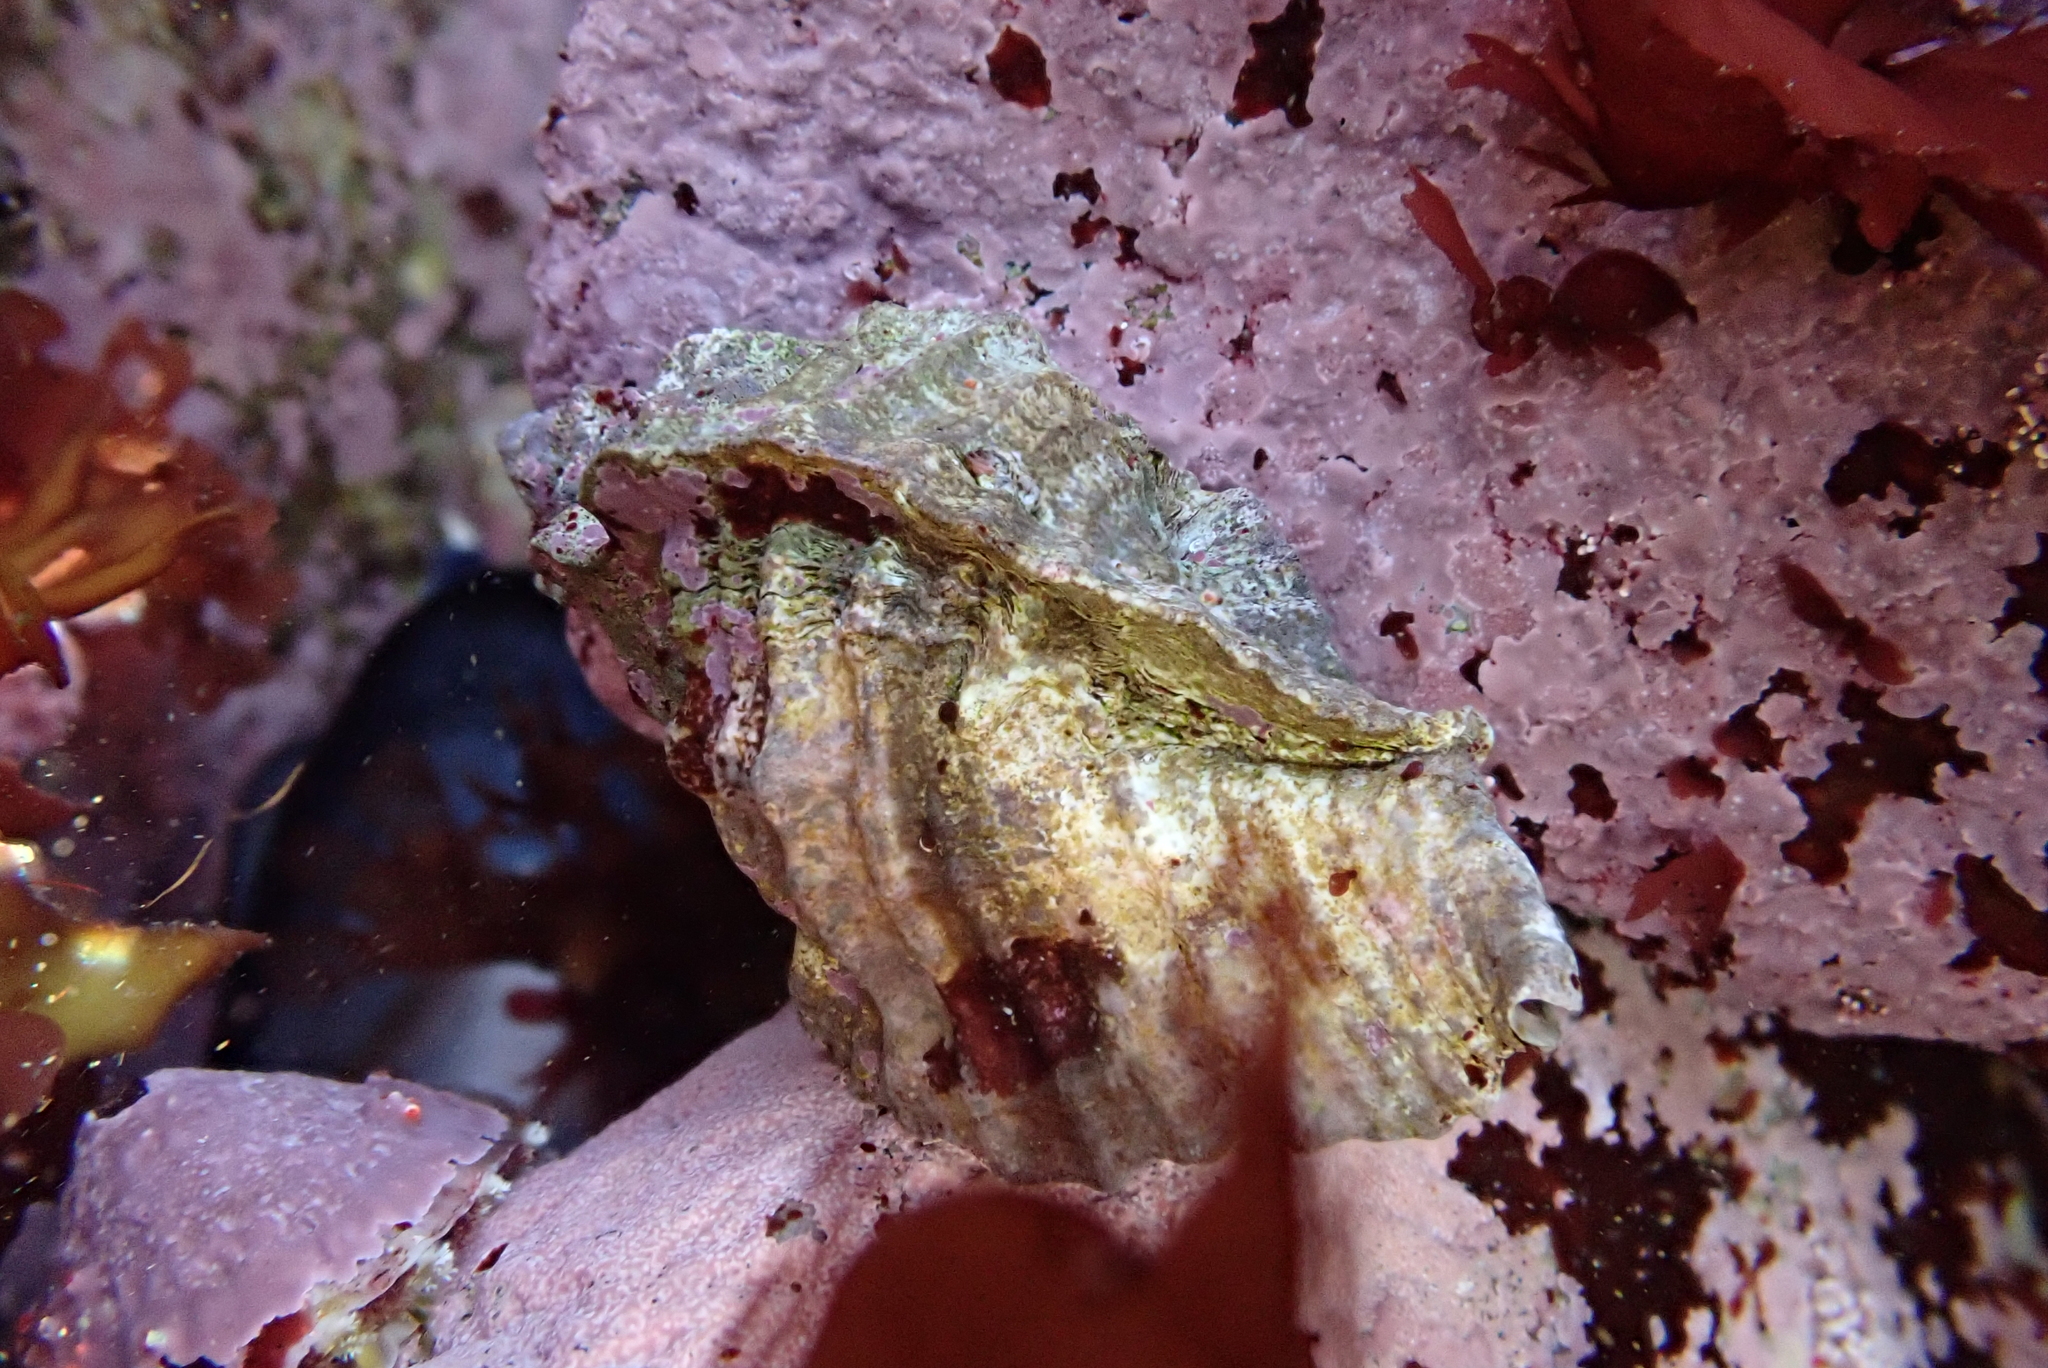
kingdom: Animalia
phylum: Mollusca
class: Gastropoda
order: Neogastropoda
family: Muricidae
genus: Ceratostoma
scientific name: Ceratostoma foliatum
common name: Foliate thorn purpura
